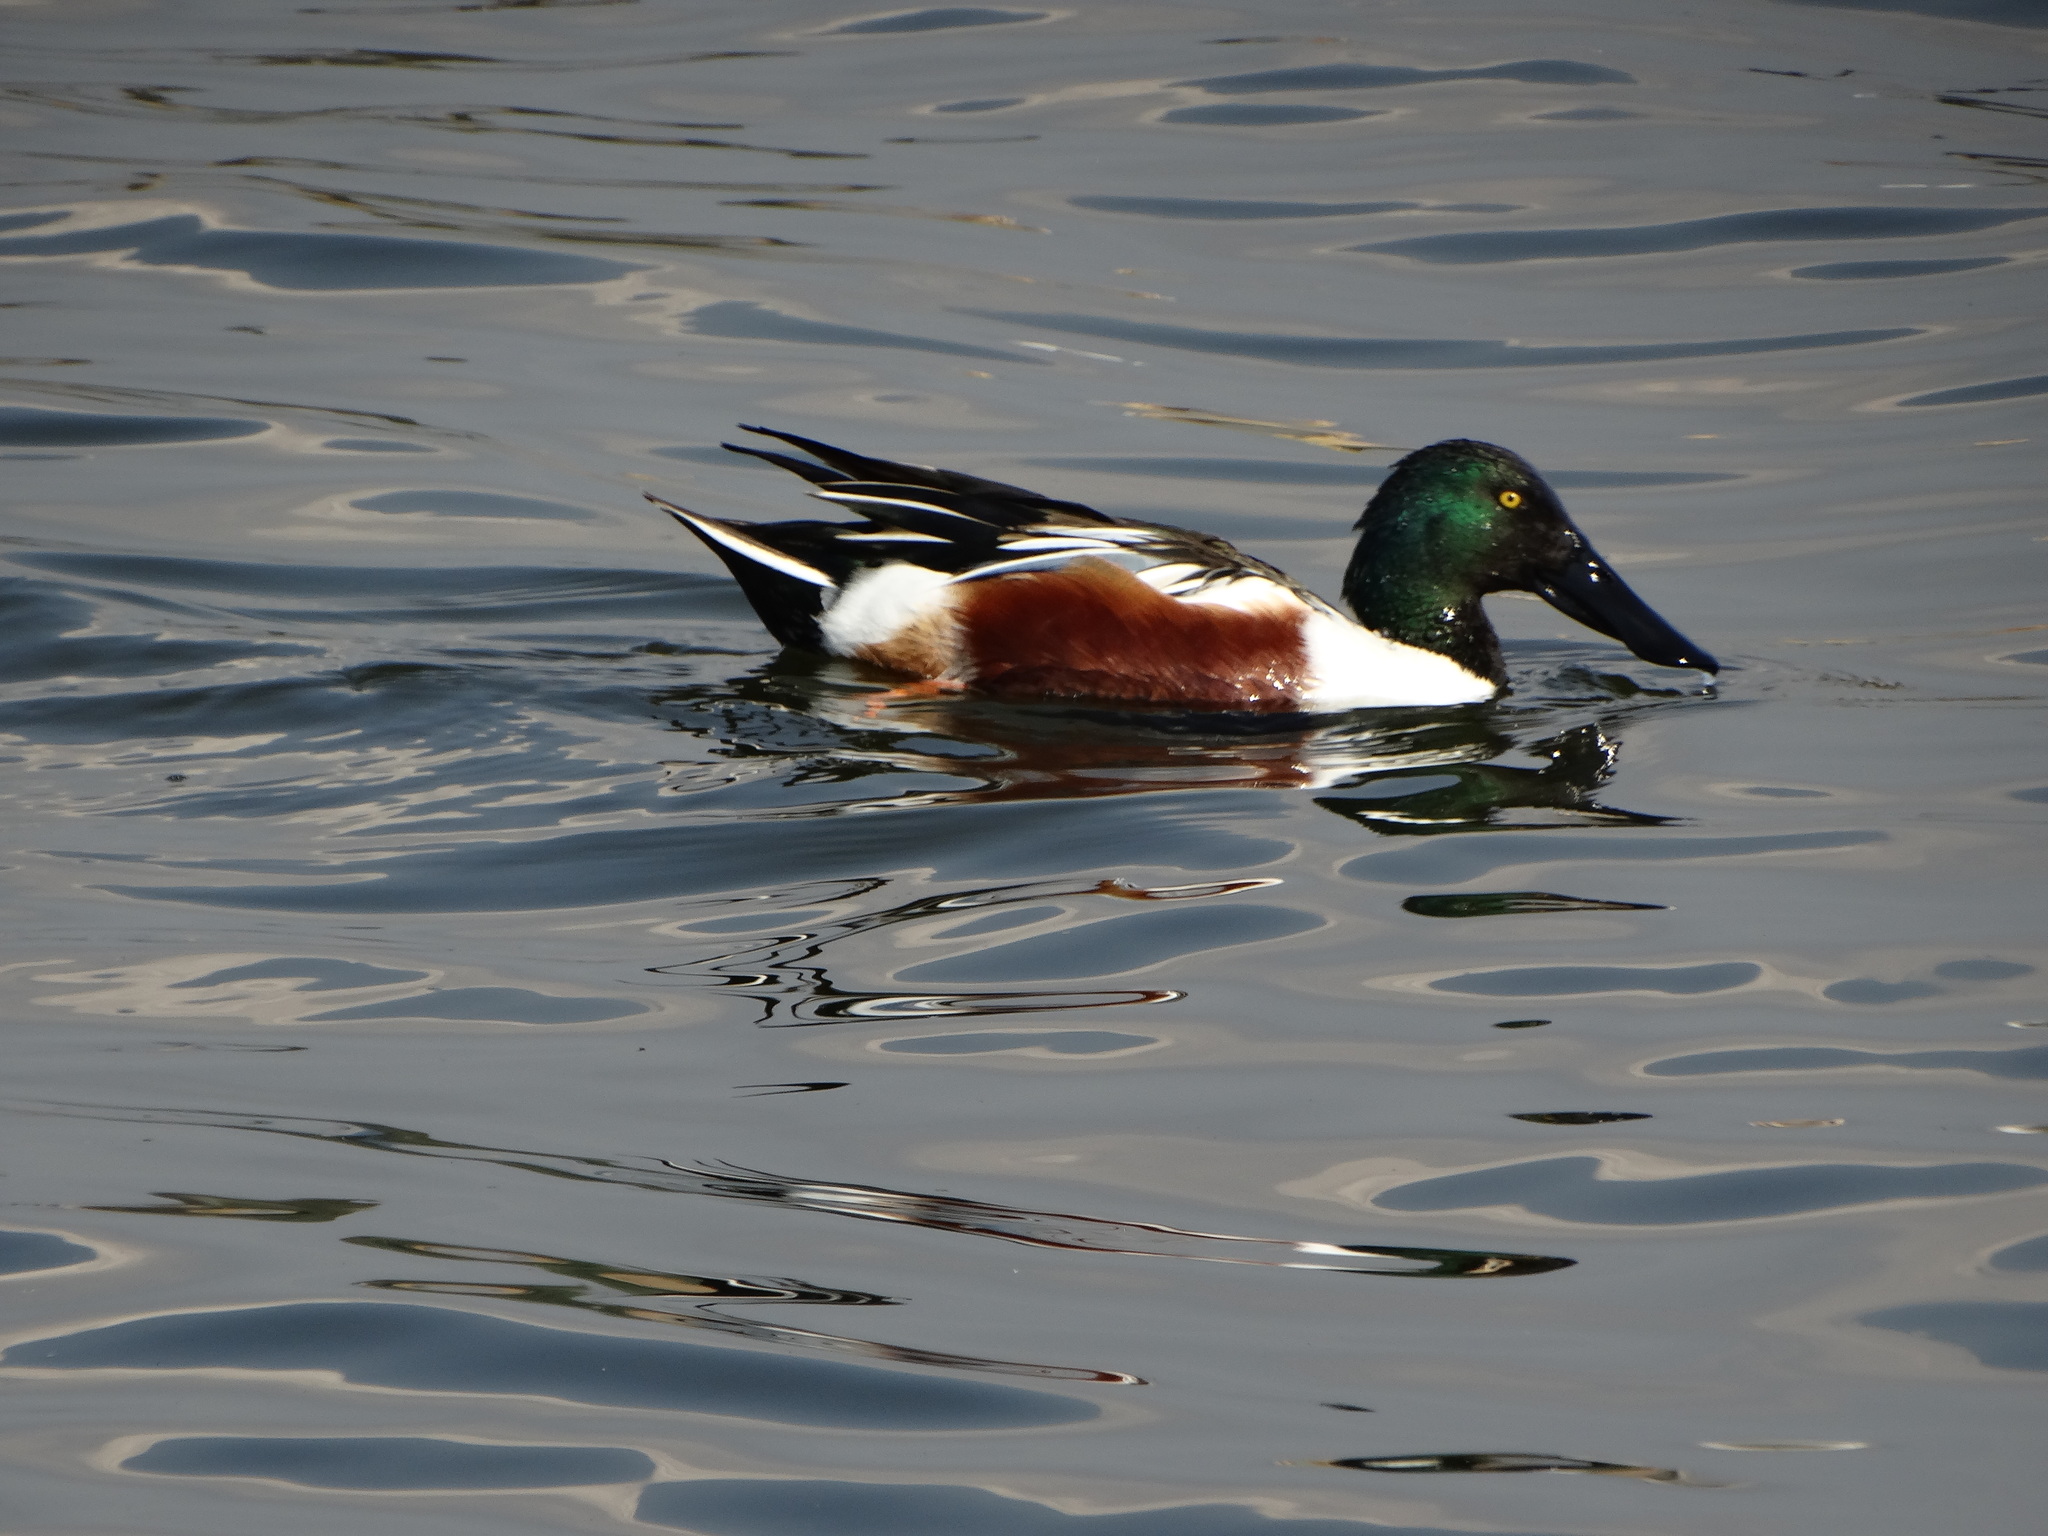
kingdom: Animalia
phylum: Chordata
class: Aves
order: Anseriformes
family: Anatidae
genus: Spatula
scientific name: Spatula clypeata
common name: Northern shoveler
